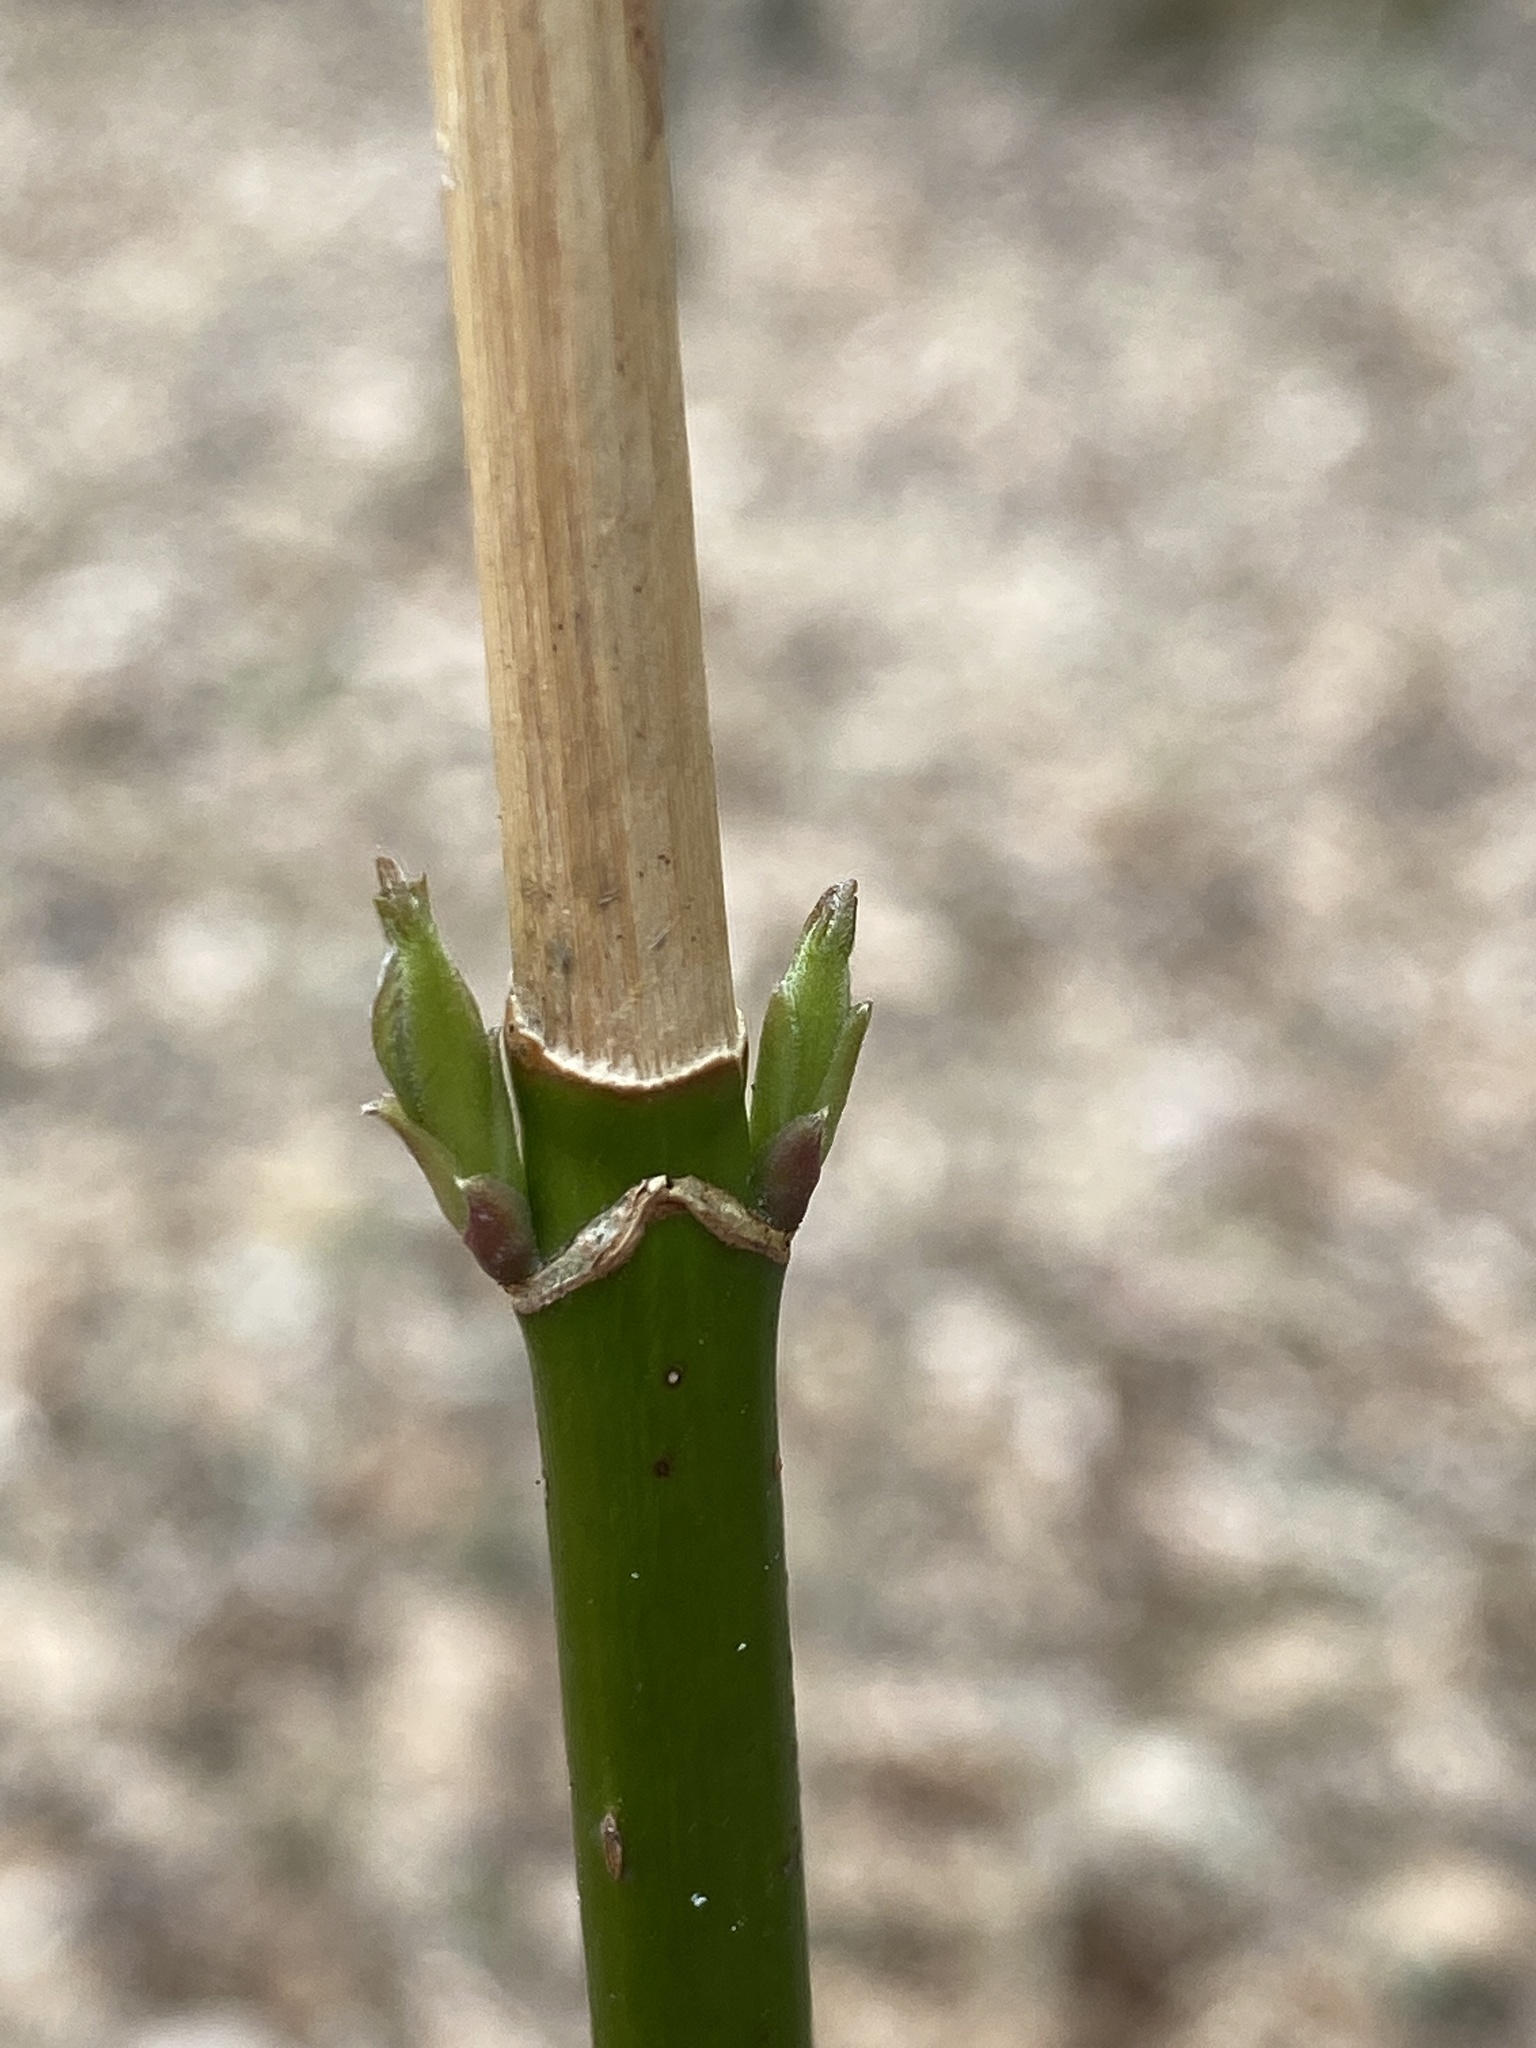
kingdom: Plantae
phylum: Tracheophyta
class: Magnoliopsida
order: Sapindales
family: Sapindaceae
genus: Acer
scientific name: Acer negundo
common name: Ashleaf maple
